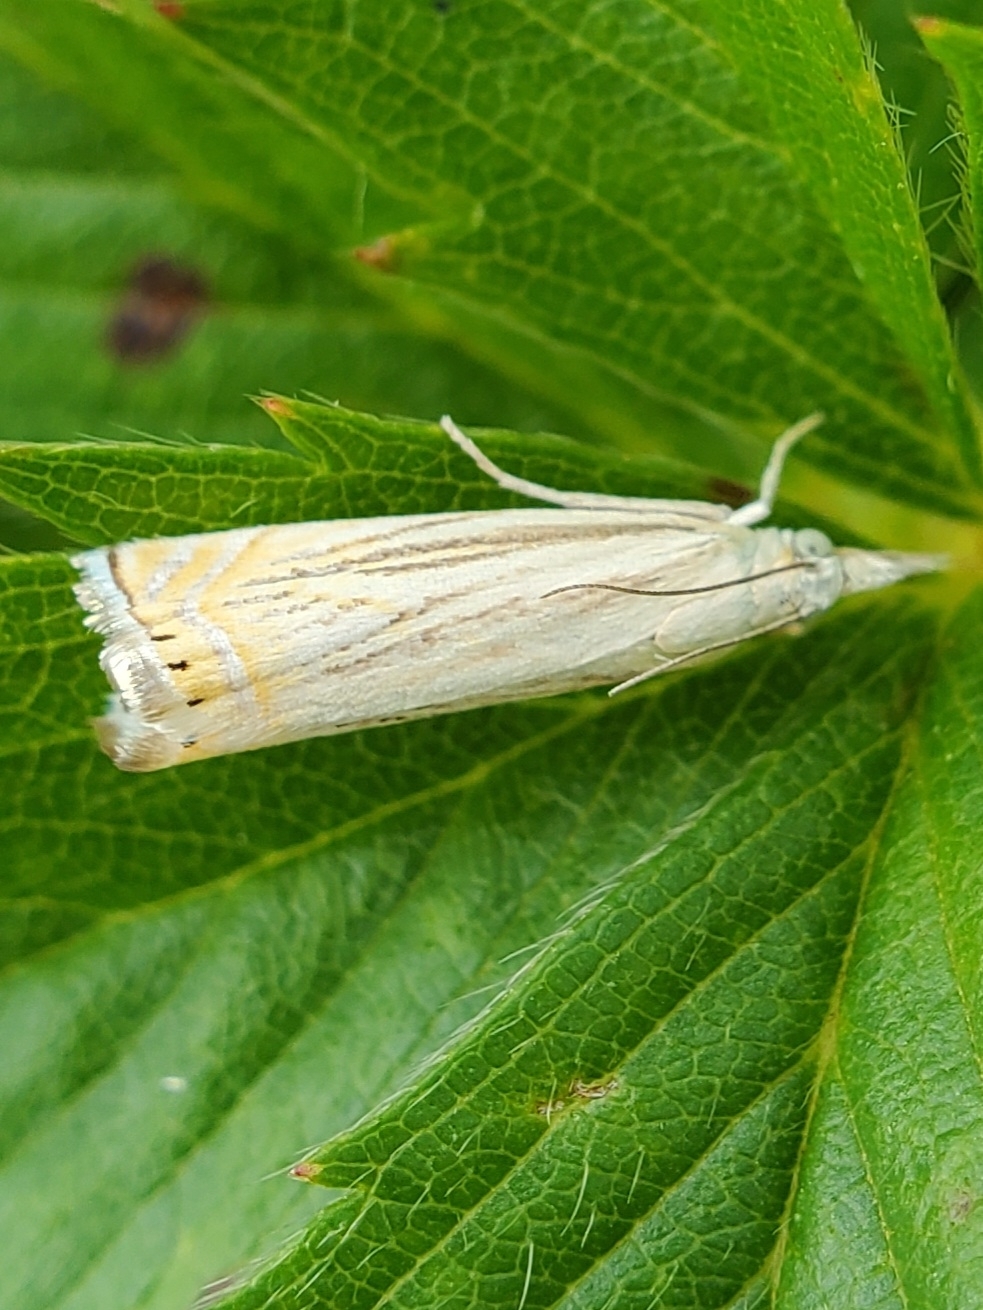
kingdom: Animalia
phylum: Arthropoda
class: Insecta
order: Lepidoptera
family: Crambidae
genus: Chrysoteuchia
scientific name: Chrysoteuchia topiarius
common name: Topiary grass-veneer
